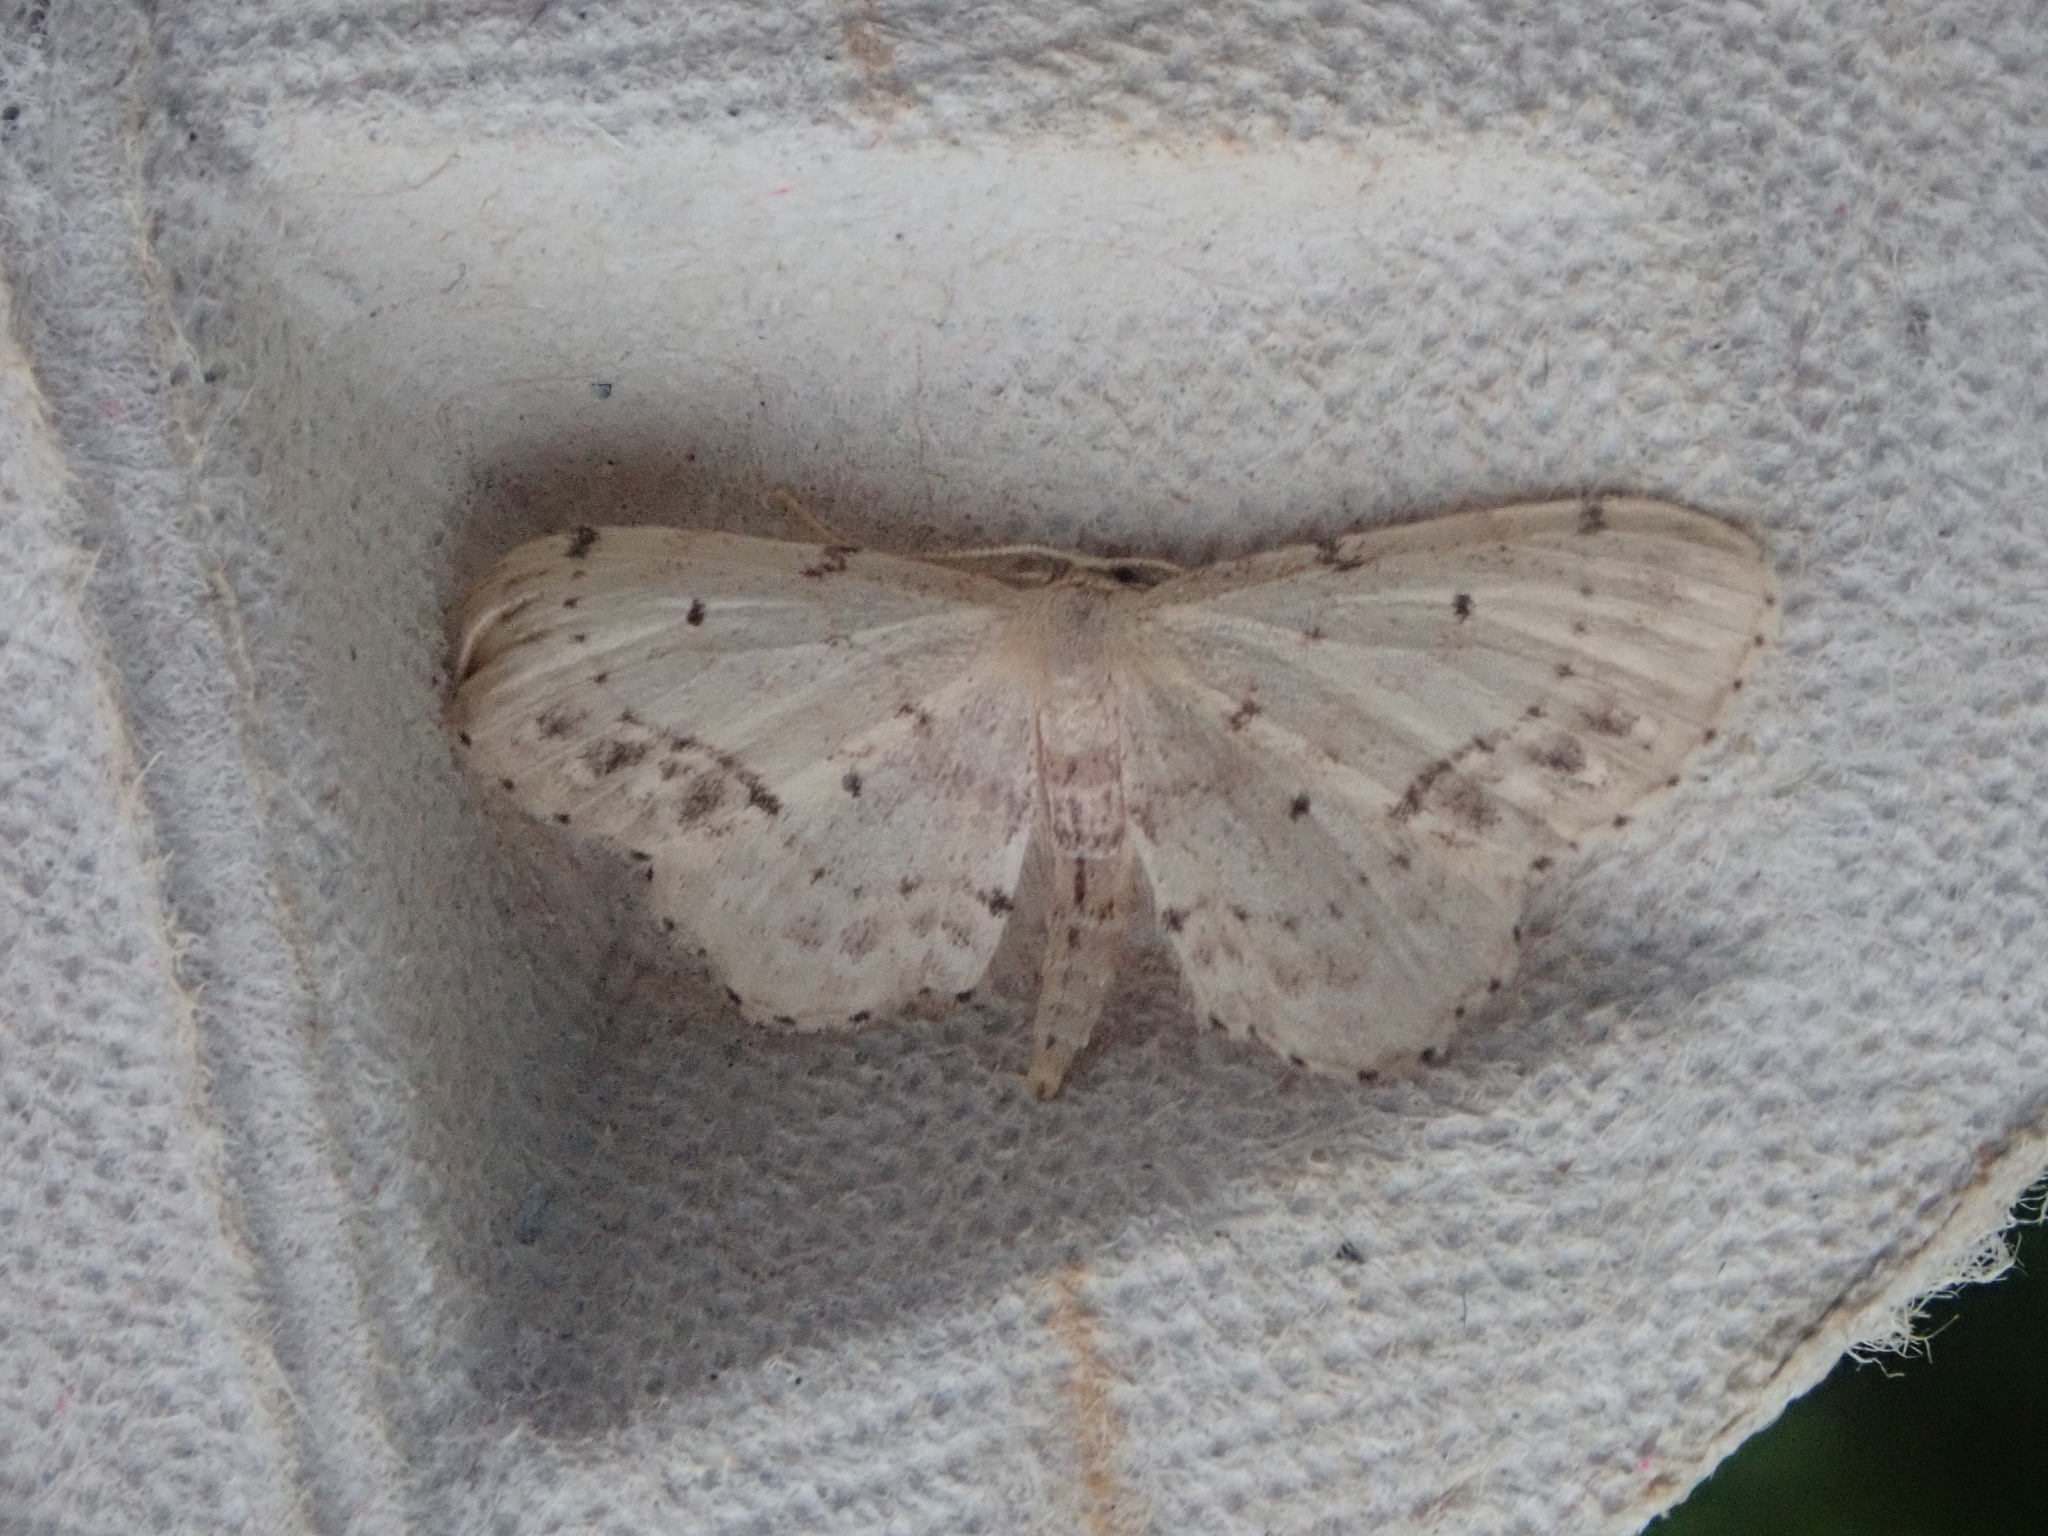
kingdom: Animalia
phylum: Arthropoda
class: Insecta
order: Lepidoptera
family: Geometridae
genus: Idaea
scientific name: Idaea dimidiata
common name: Single-dotted wave
